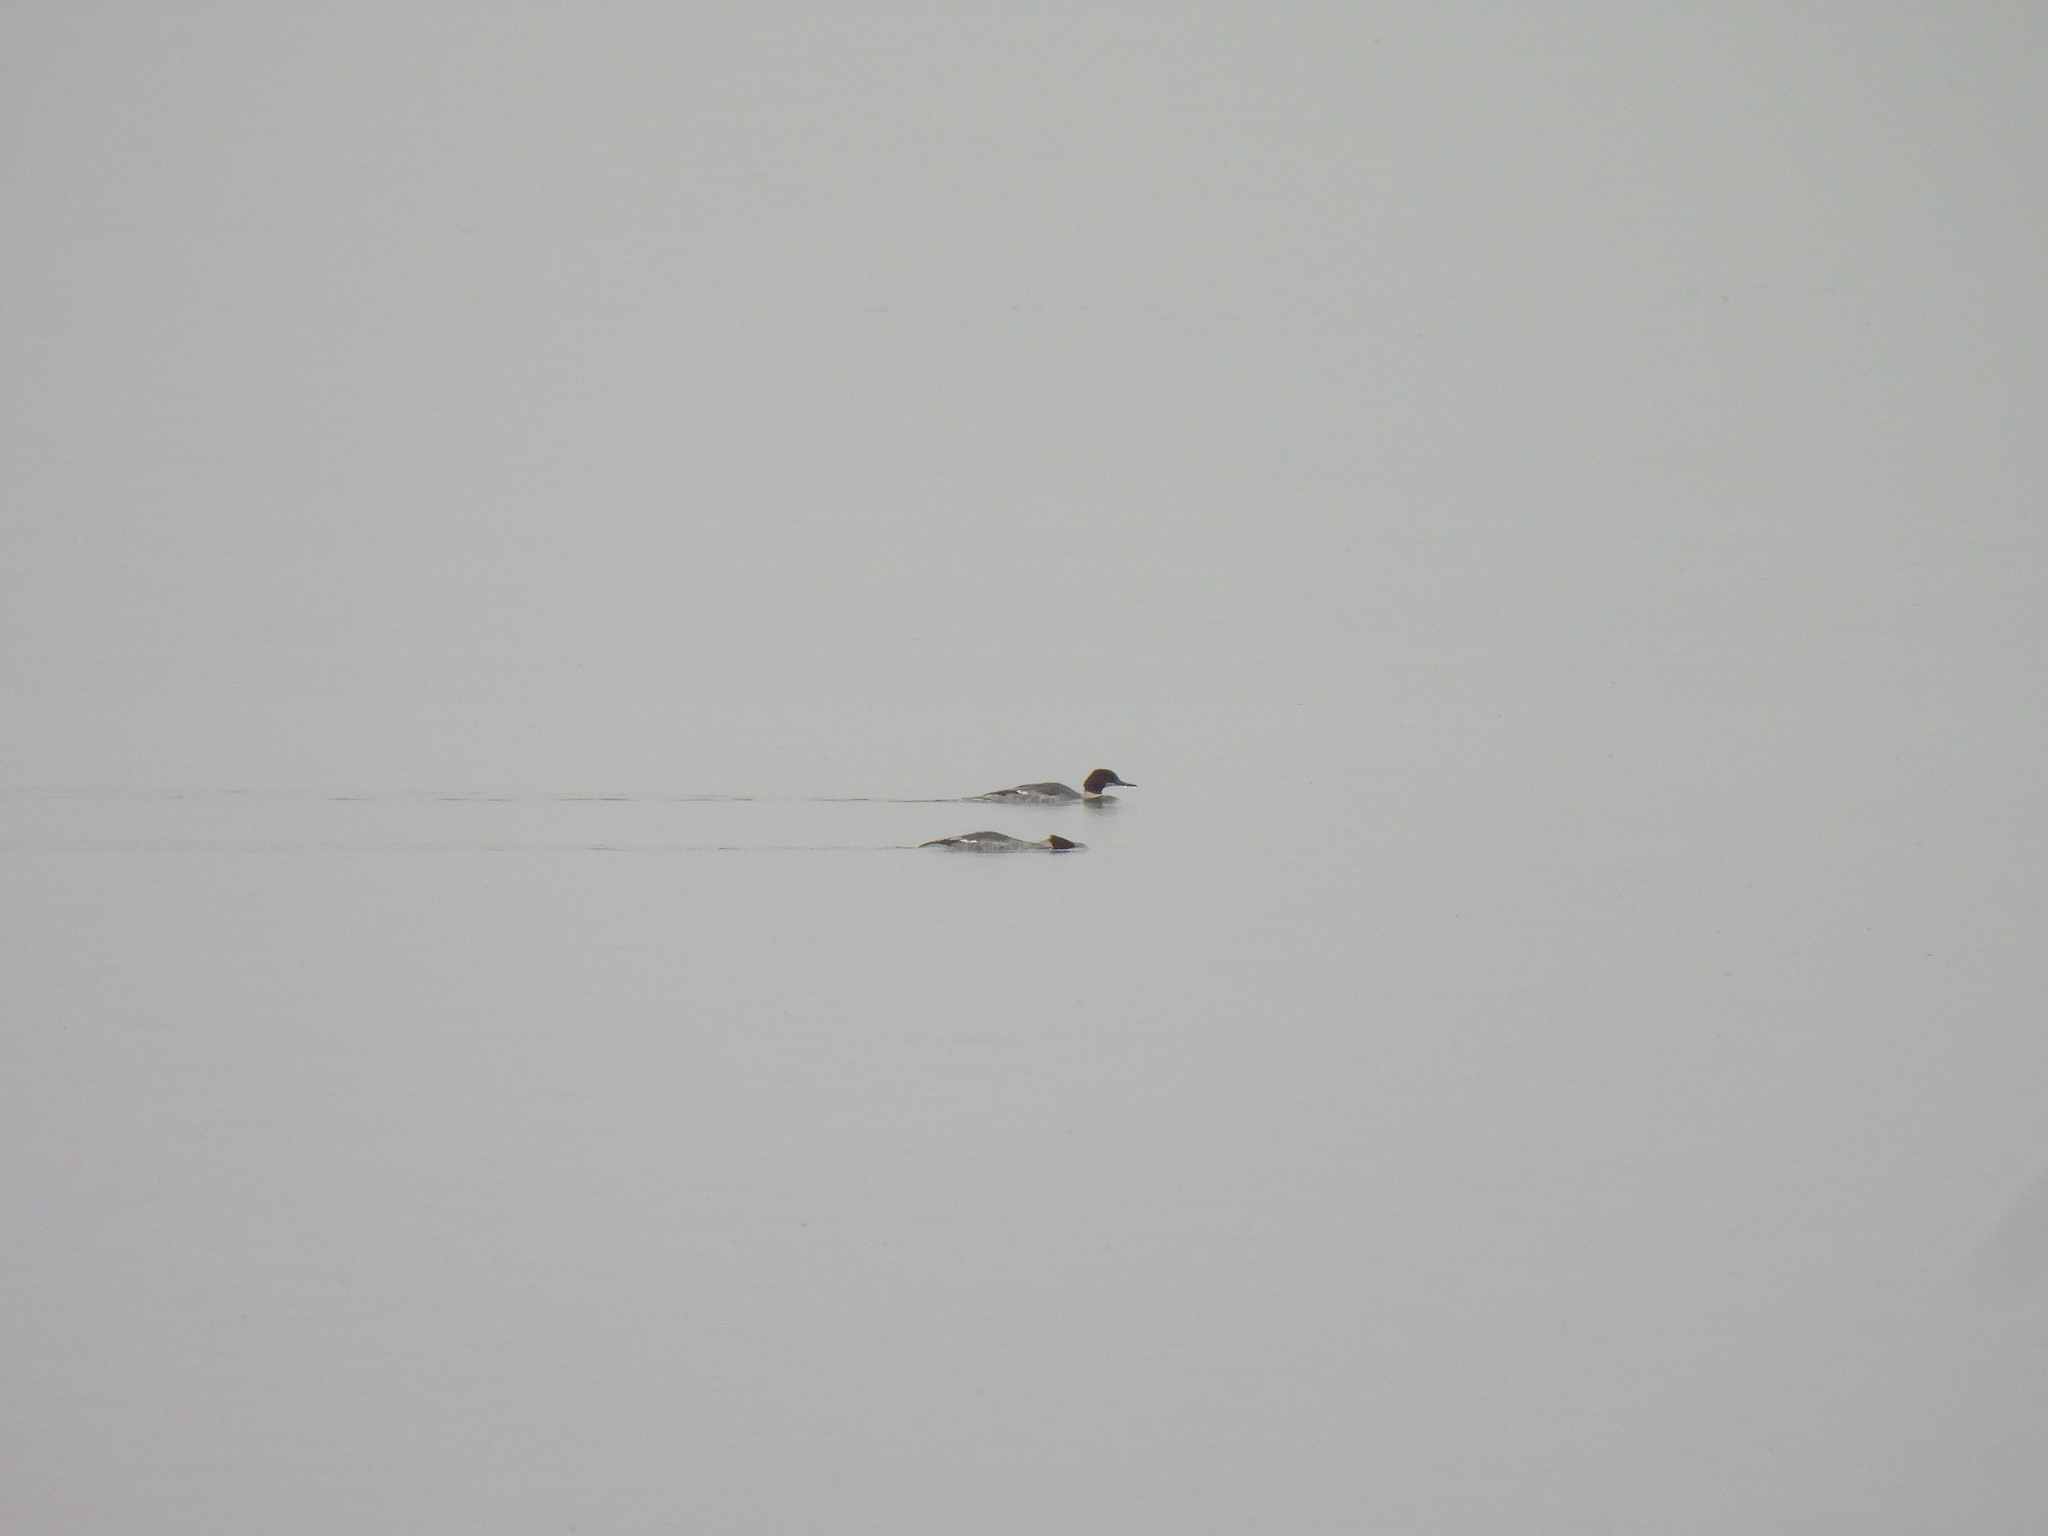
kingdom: Animalia
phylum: Chordata
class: Aves
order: Anseriformes
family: Anatidae
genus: Mergus
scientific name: Mergus merganser
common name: Common merganser
